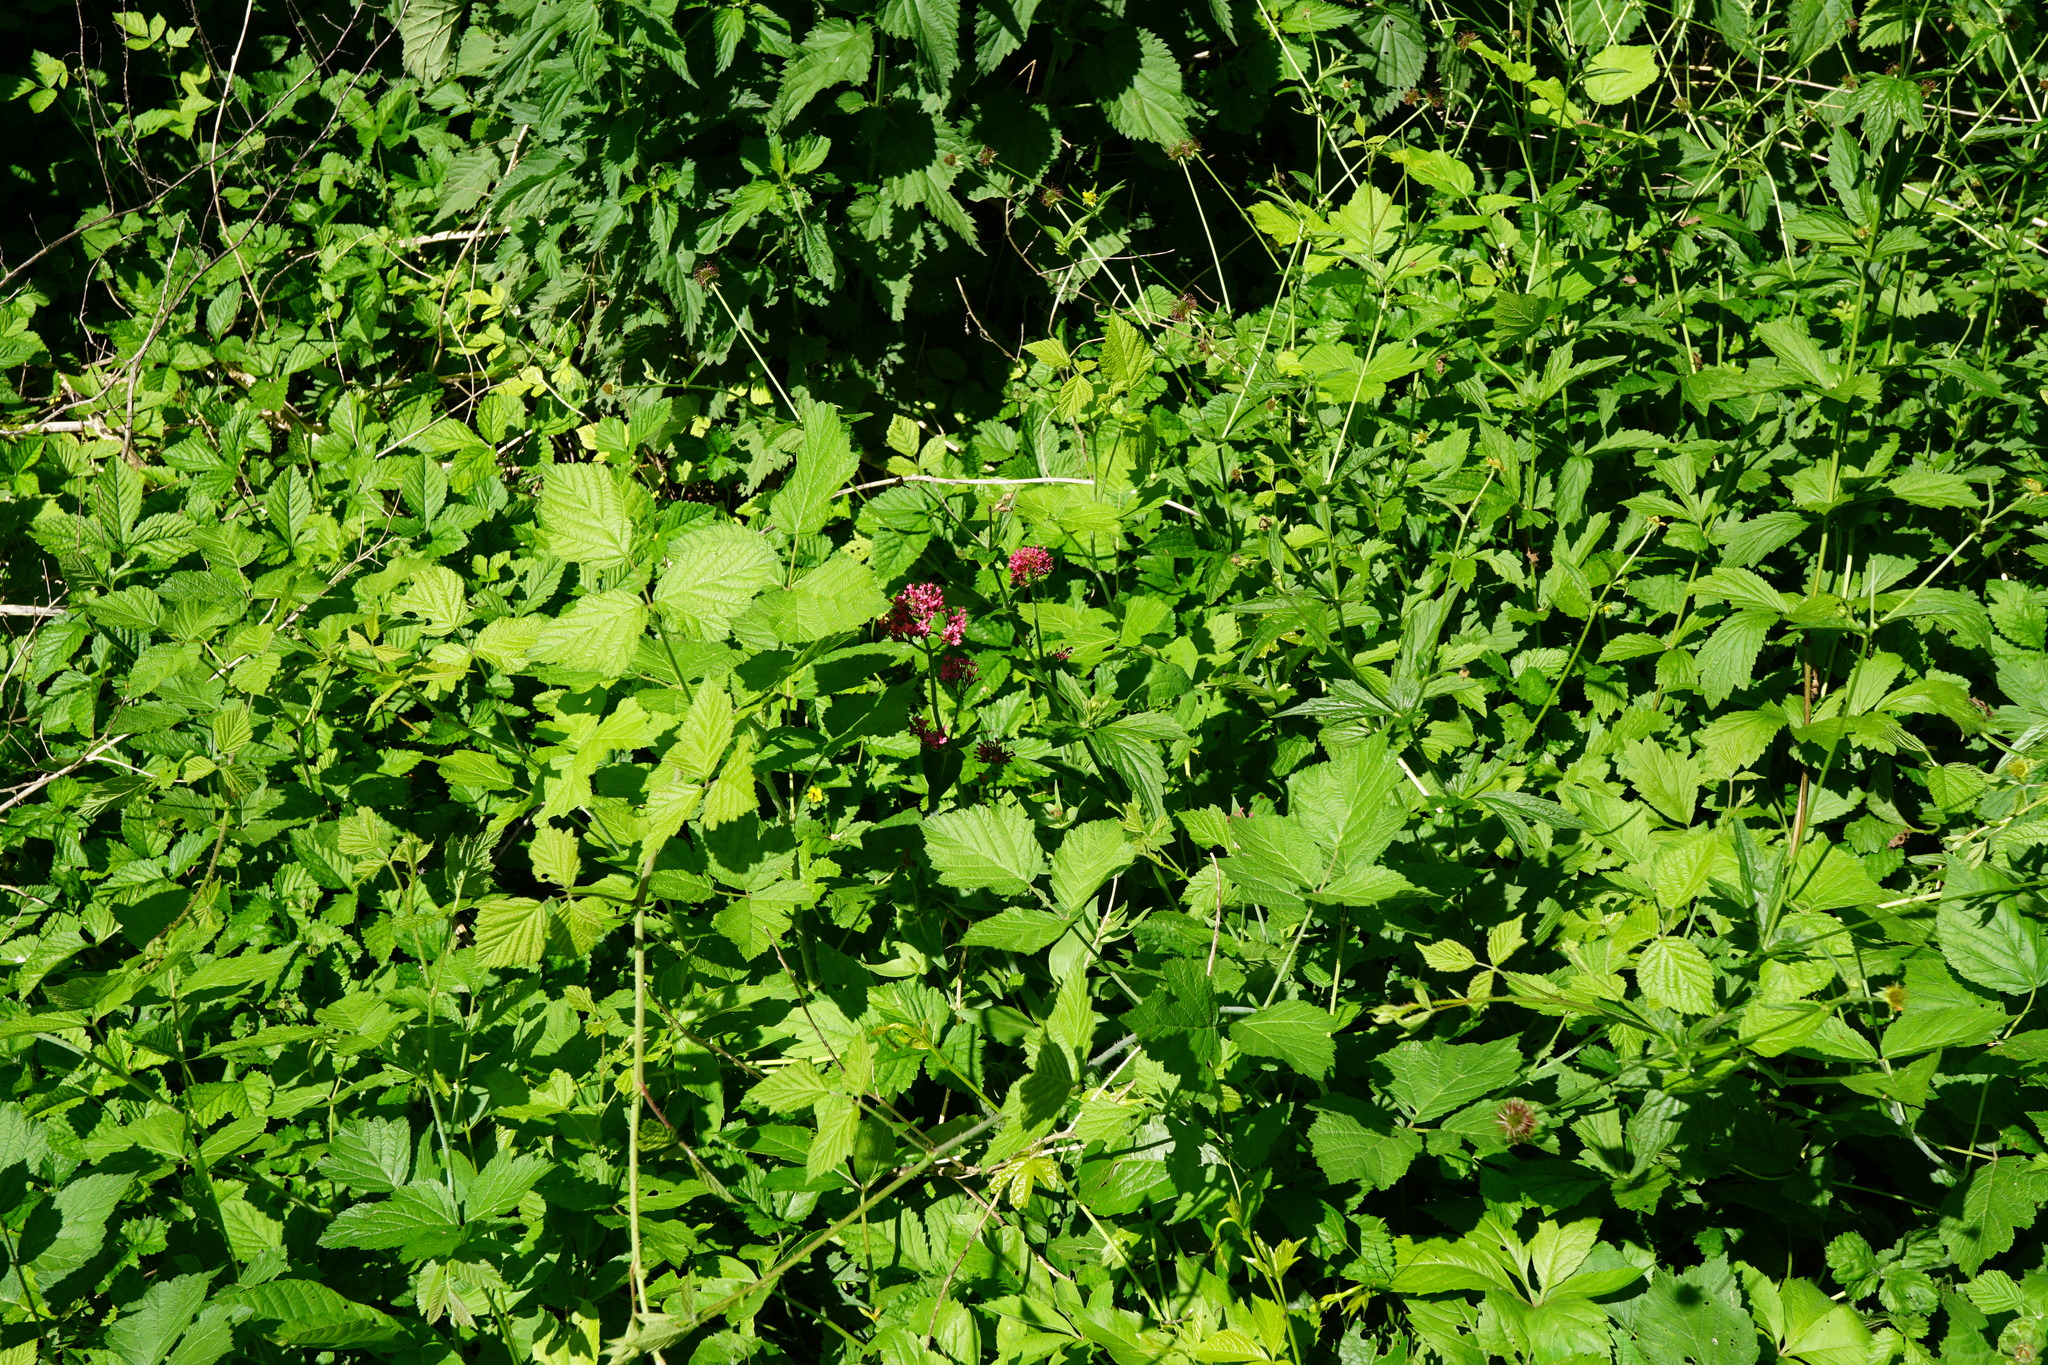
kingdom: Plantae
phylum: Tracheophyta
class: Magnoliopsida
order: Dipsacales
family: Caprifoliaceae
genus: Centranthus
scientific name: Centranthus ruber
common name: Red valerian
